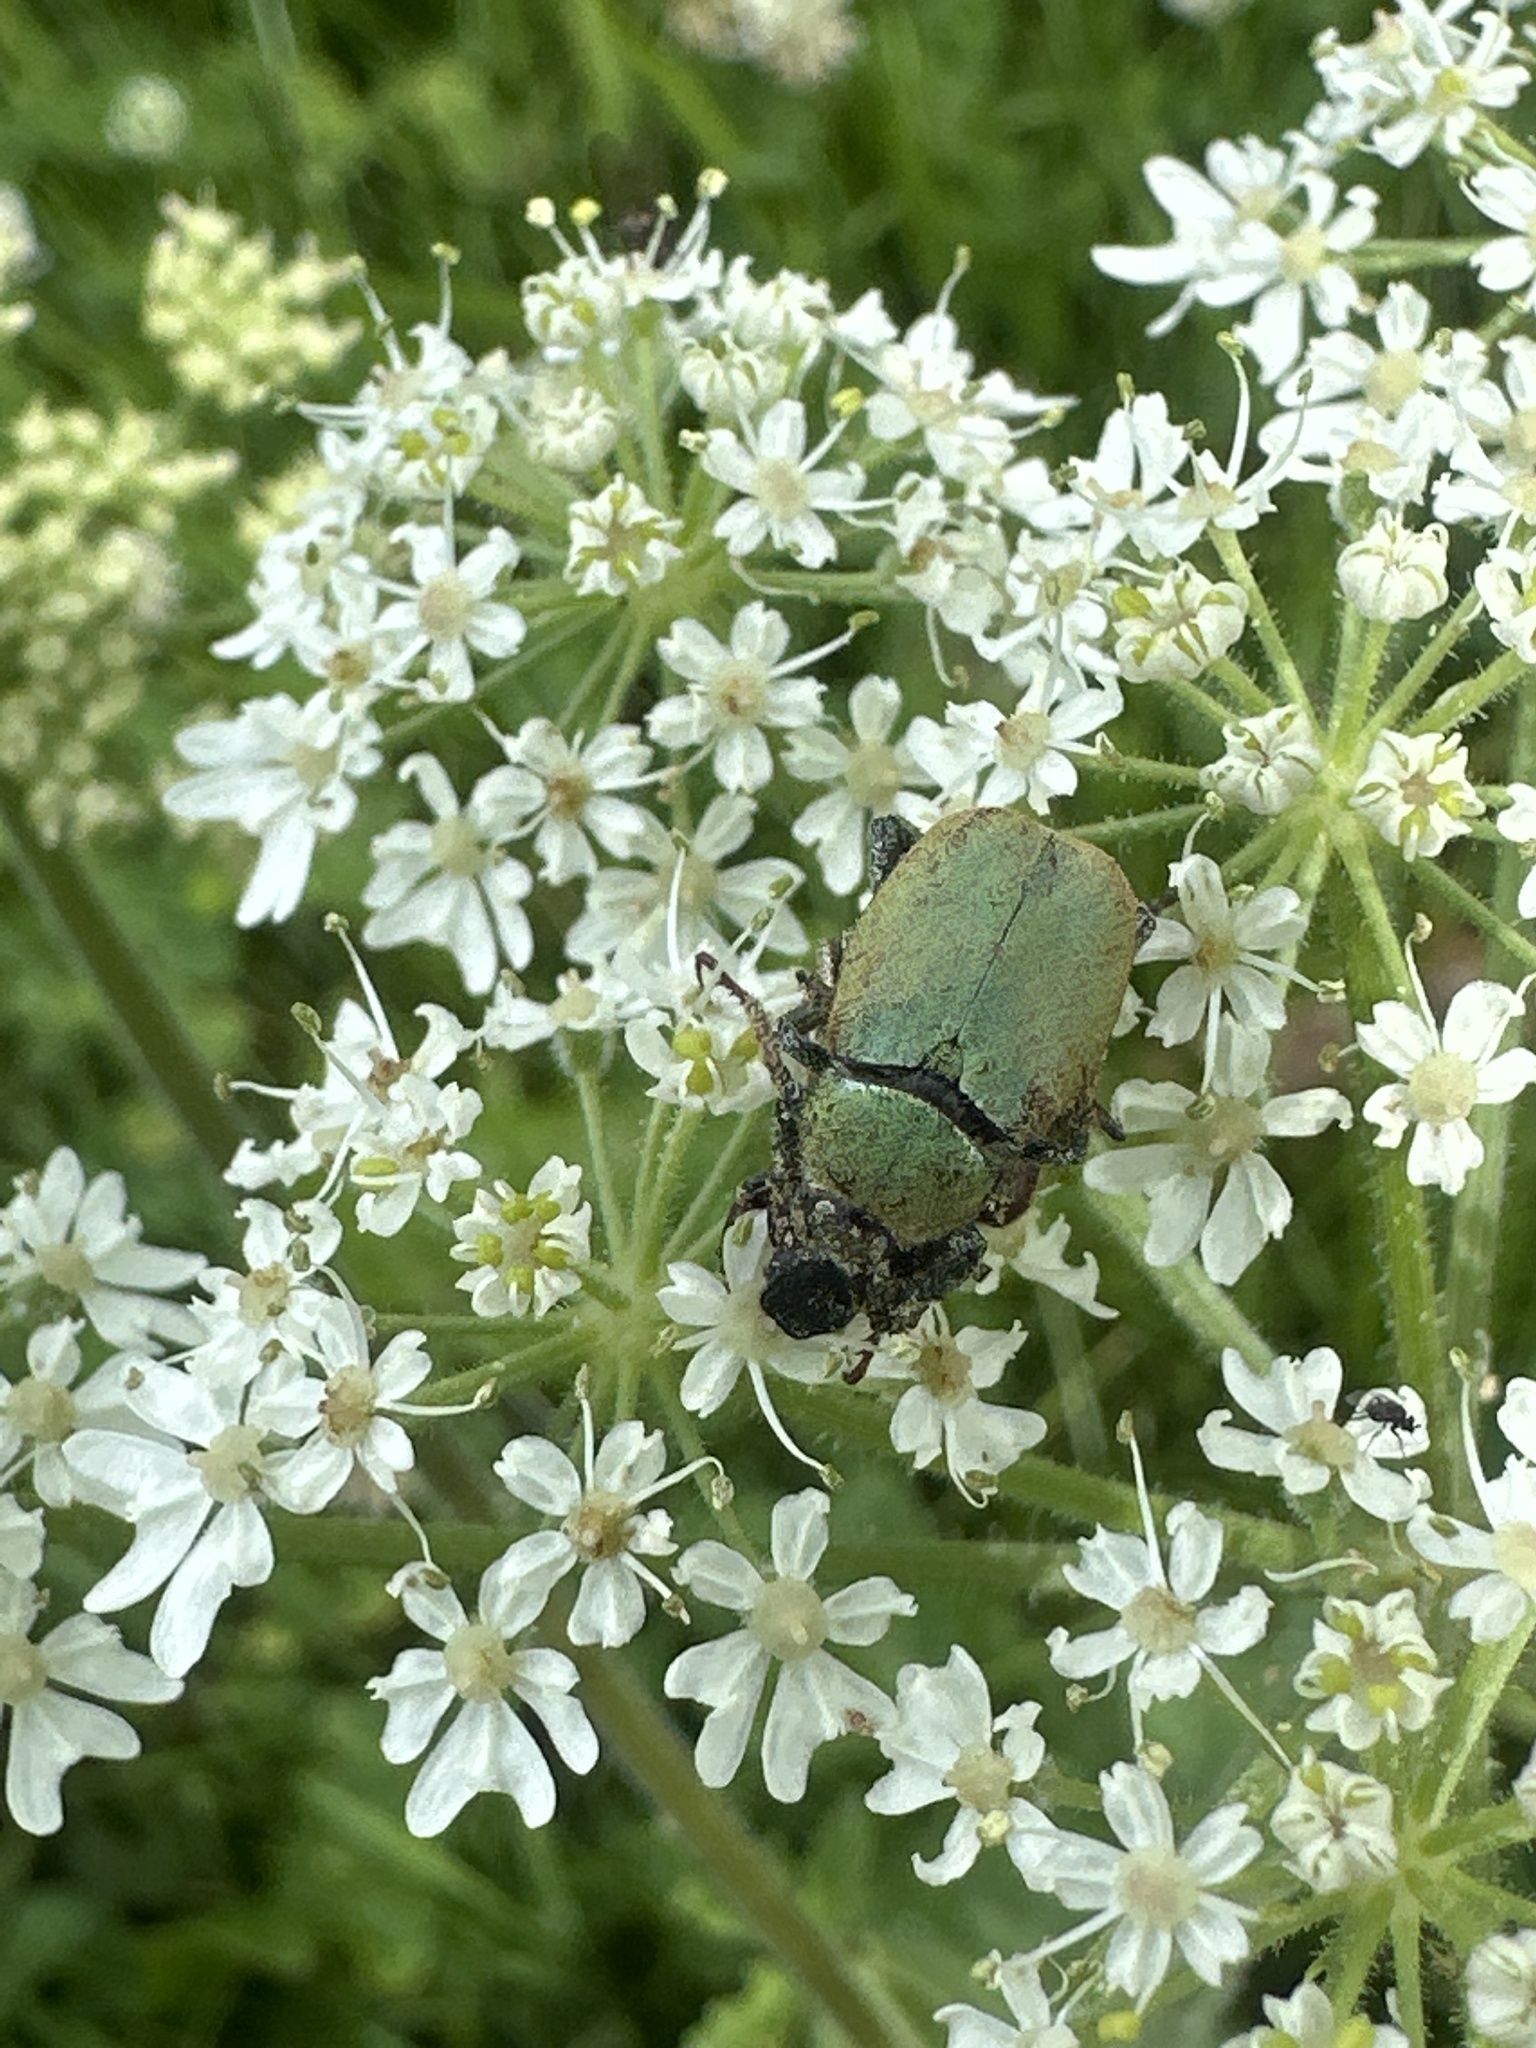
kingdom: Animalia
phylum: Arthropoda
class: Insecta
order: Coleoptera
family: Scarabaeidae
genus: Hoplia
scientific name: Hoplia argentea
